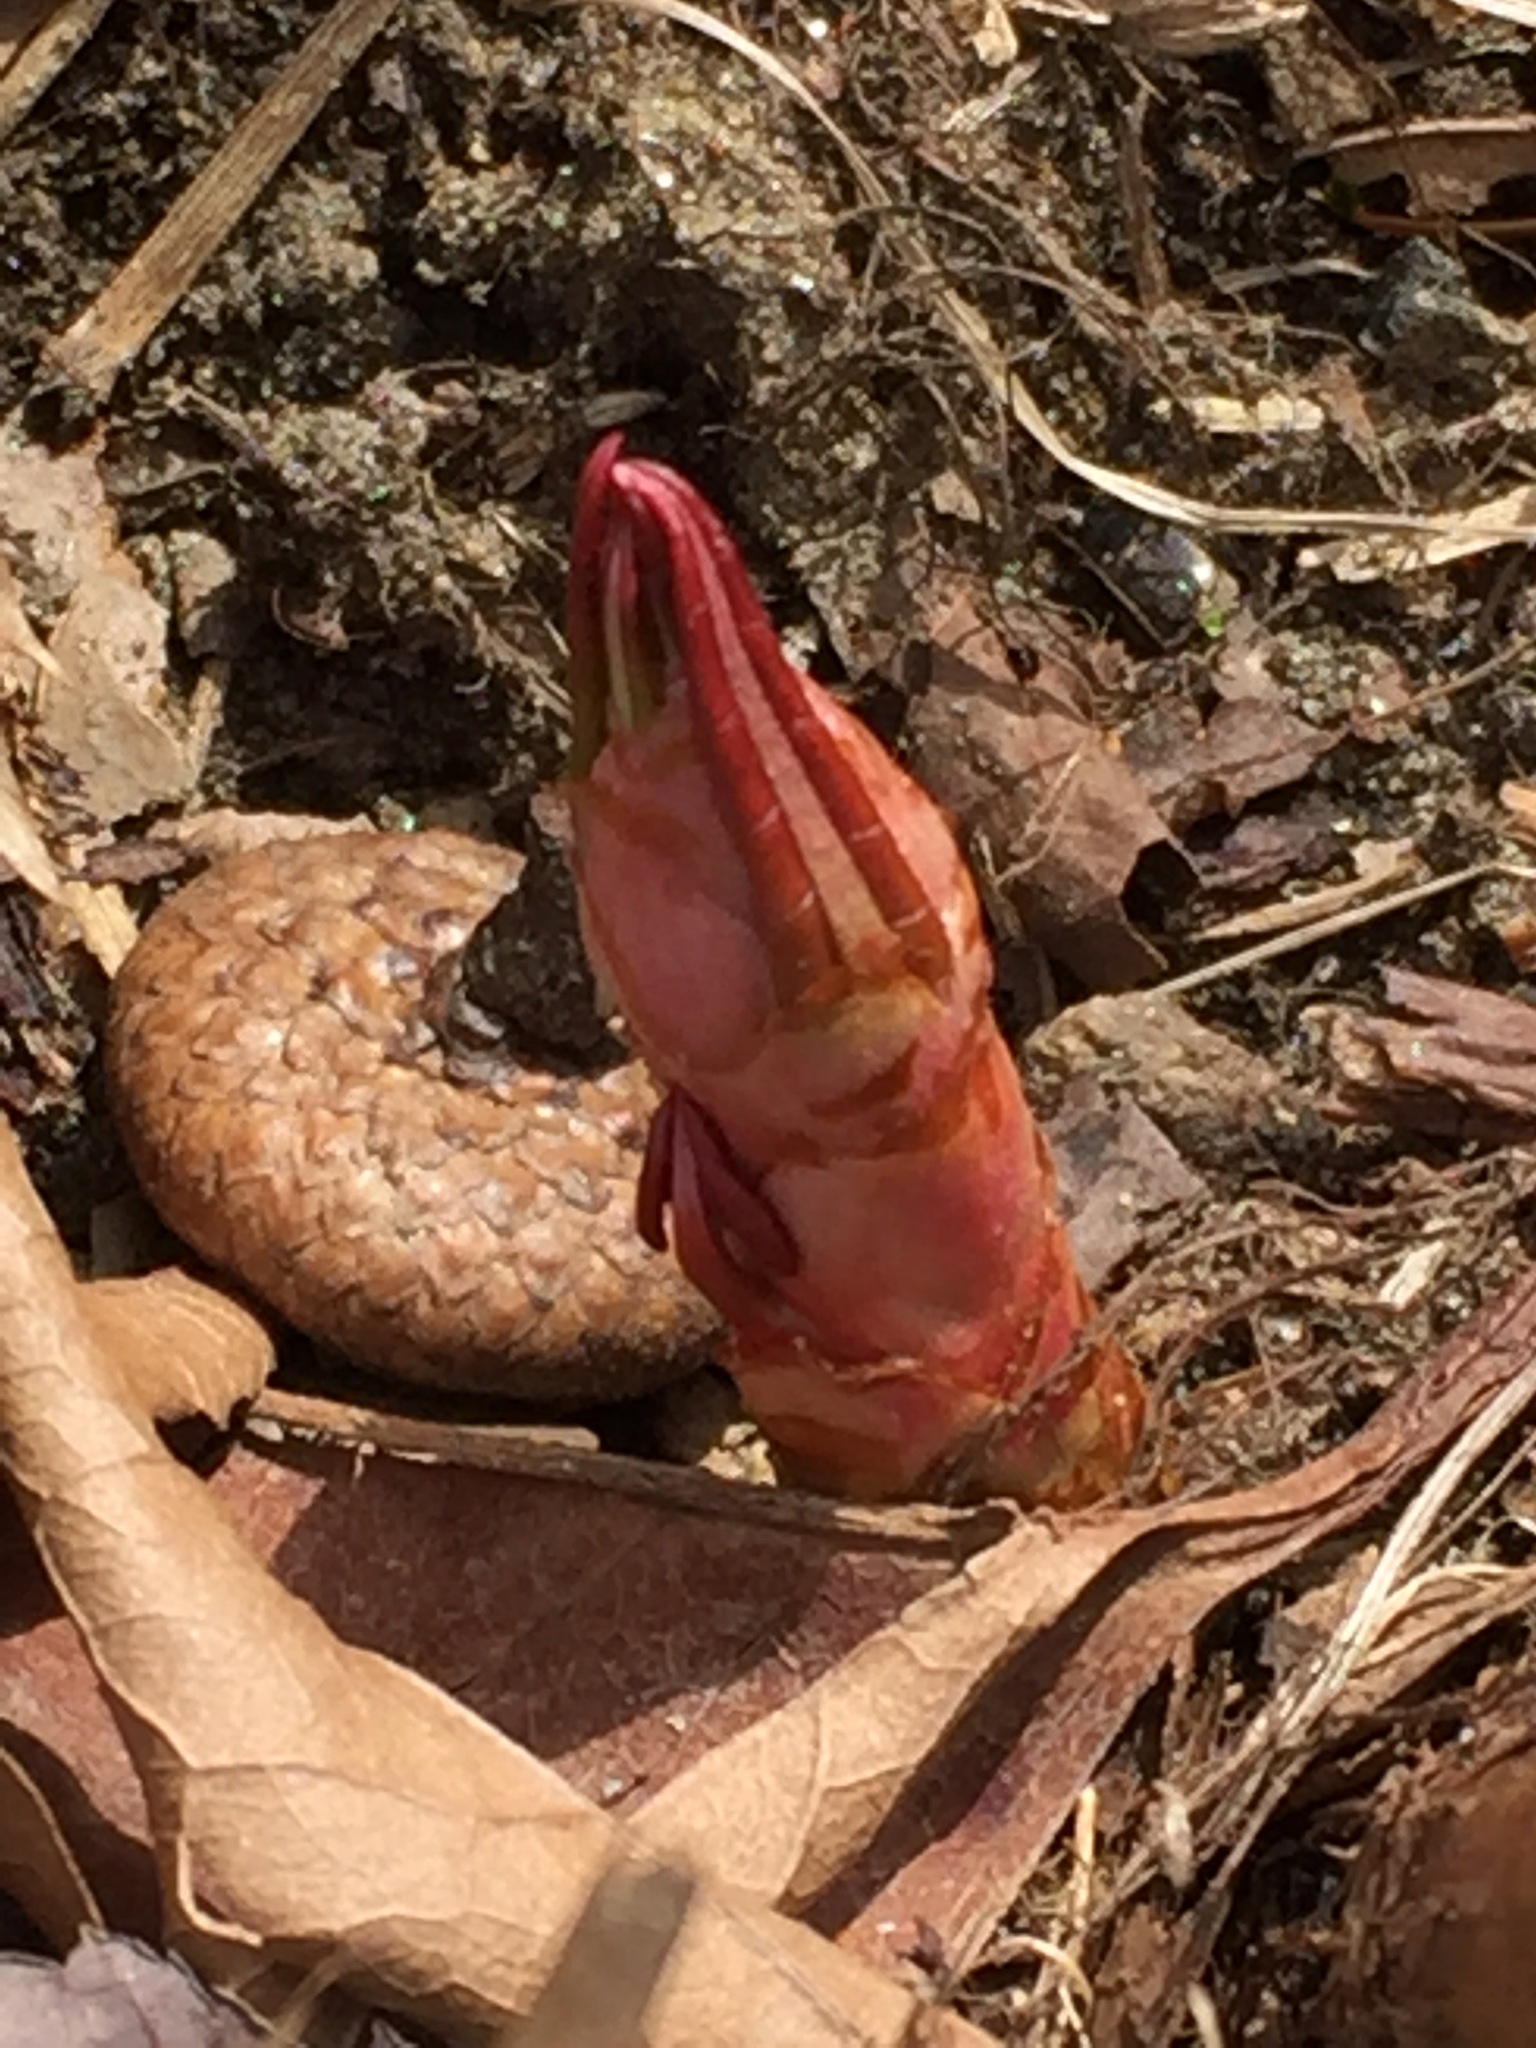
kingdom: Plantae
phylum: Tracheophyta
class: Magnoliopsida
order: Caryophyllales
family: Polygonaceae
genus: Reynoutria
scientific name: Reynoutria japonica
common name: Japanese knotweed
